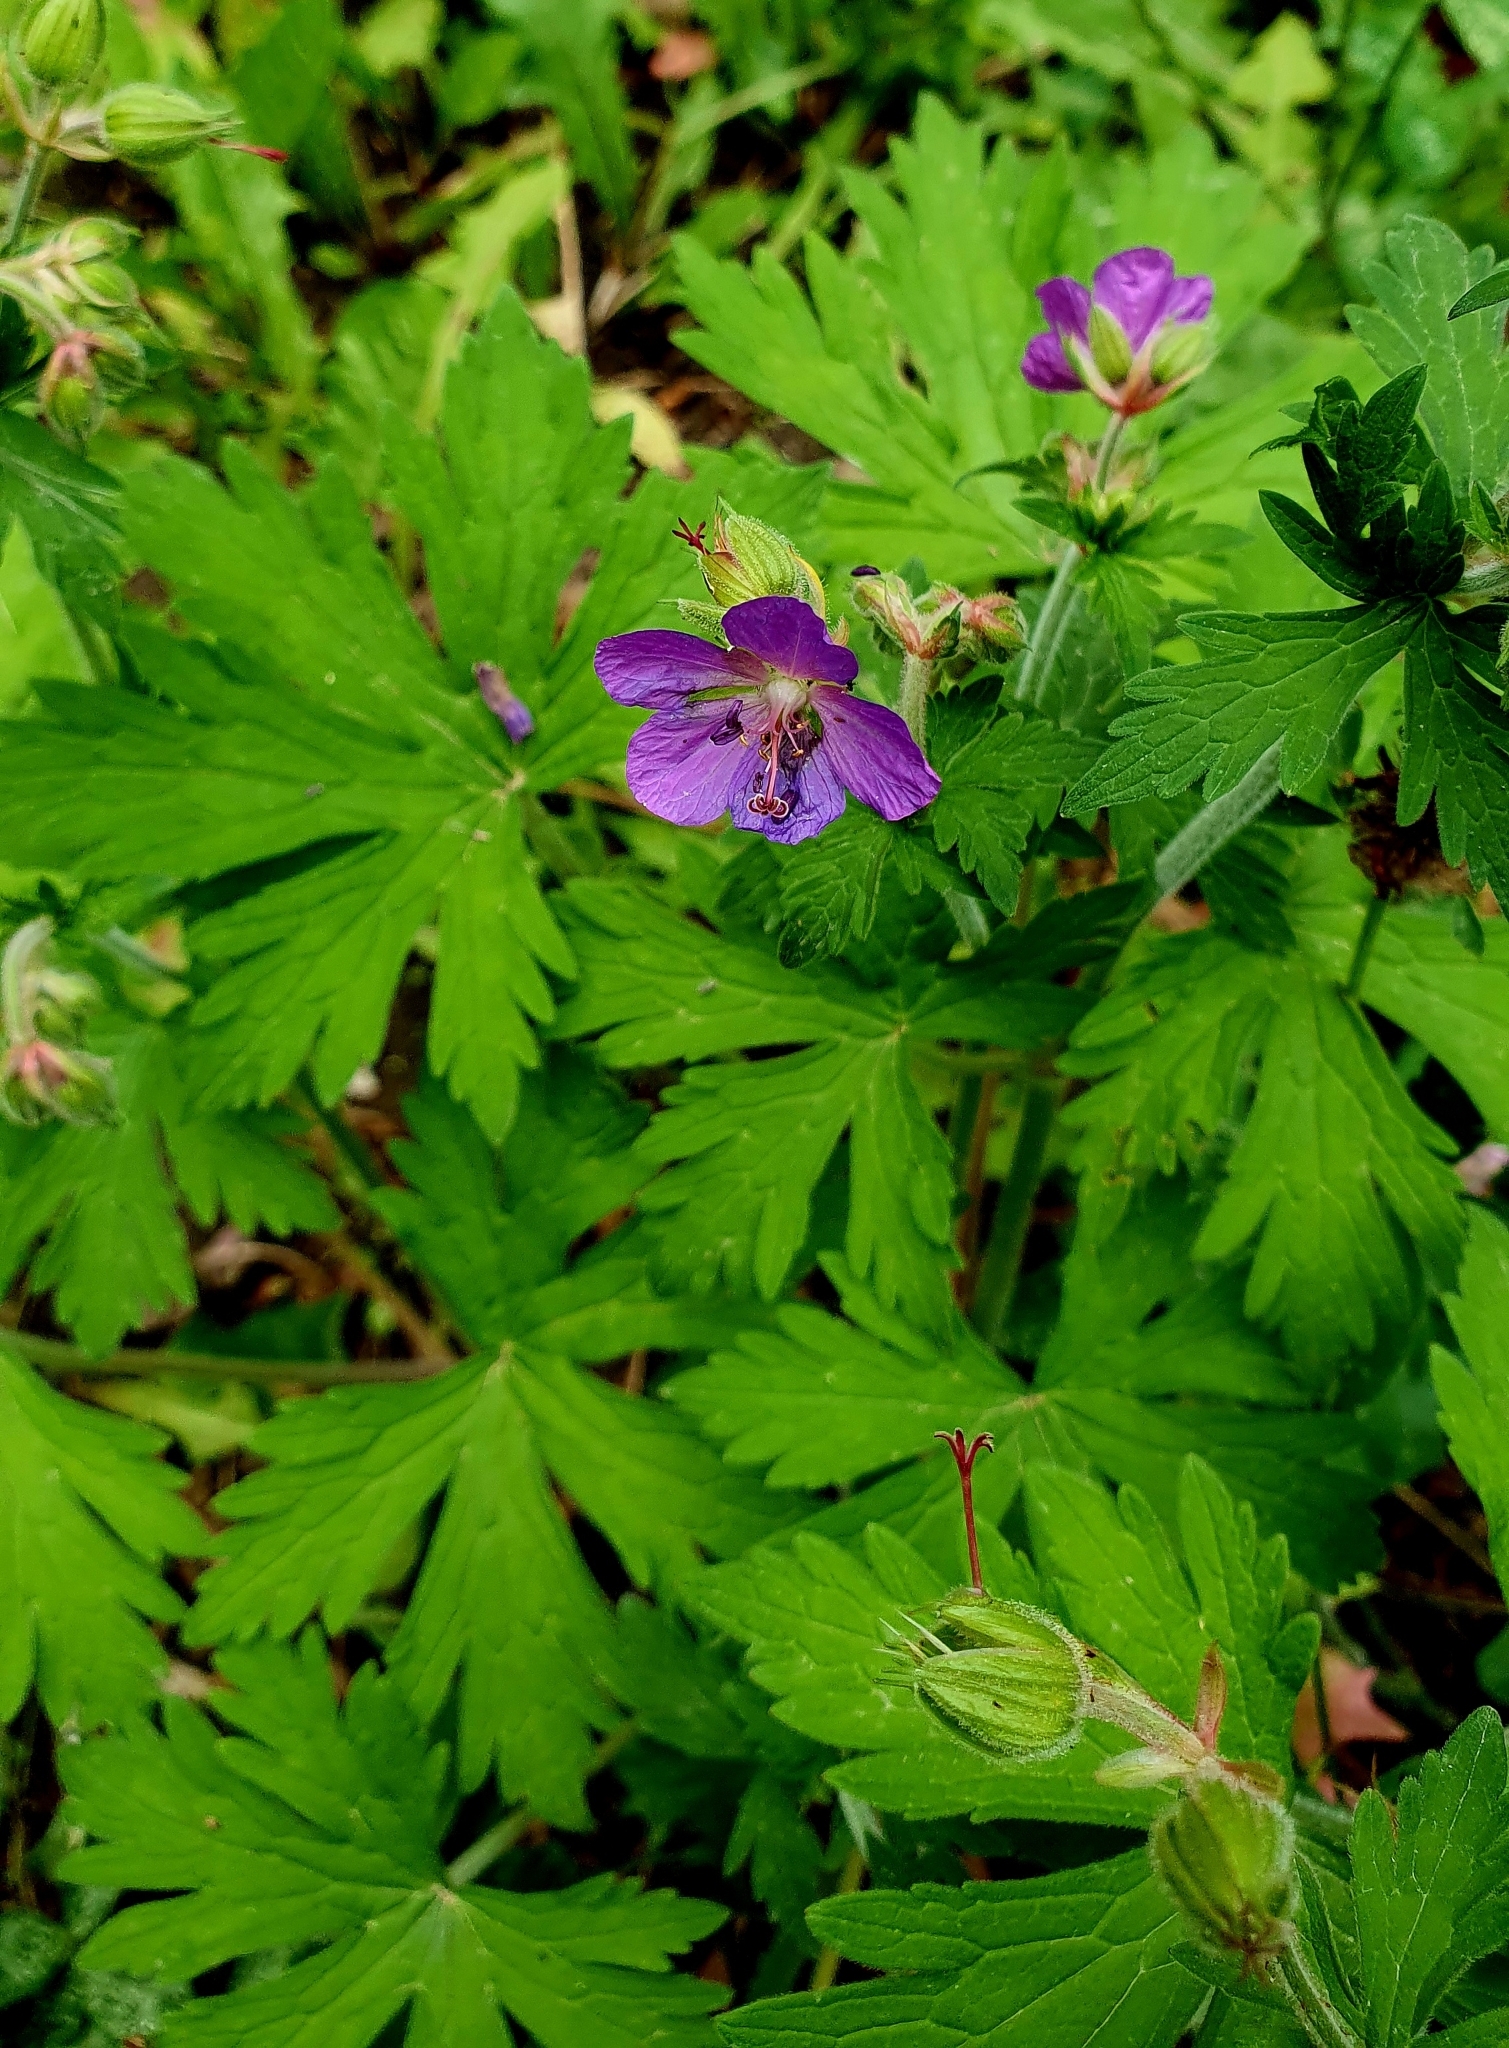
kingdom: Plantae
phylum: Tracheophyta
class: Magnoliopsida
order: Geraniales
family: Geraniaceae
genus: Geranium
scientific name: Geranium pratense
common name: Meadow crane's-bill
